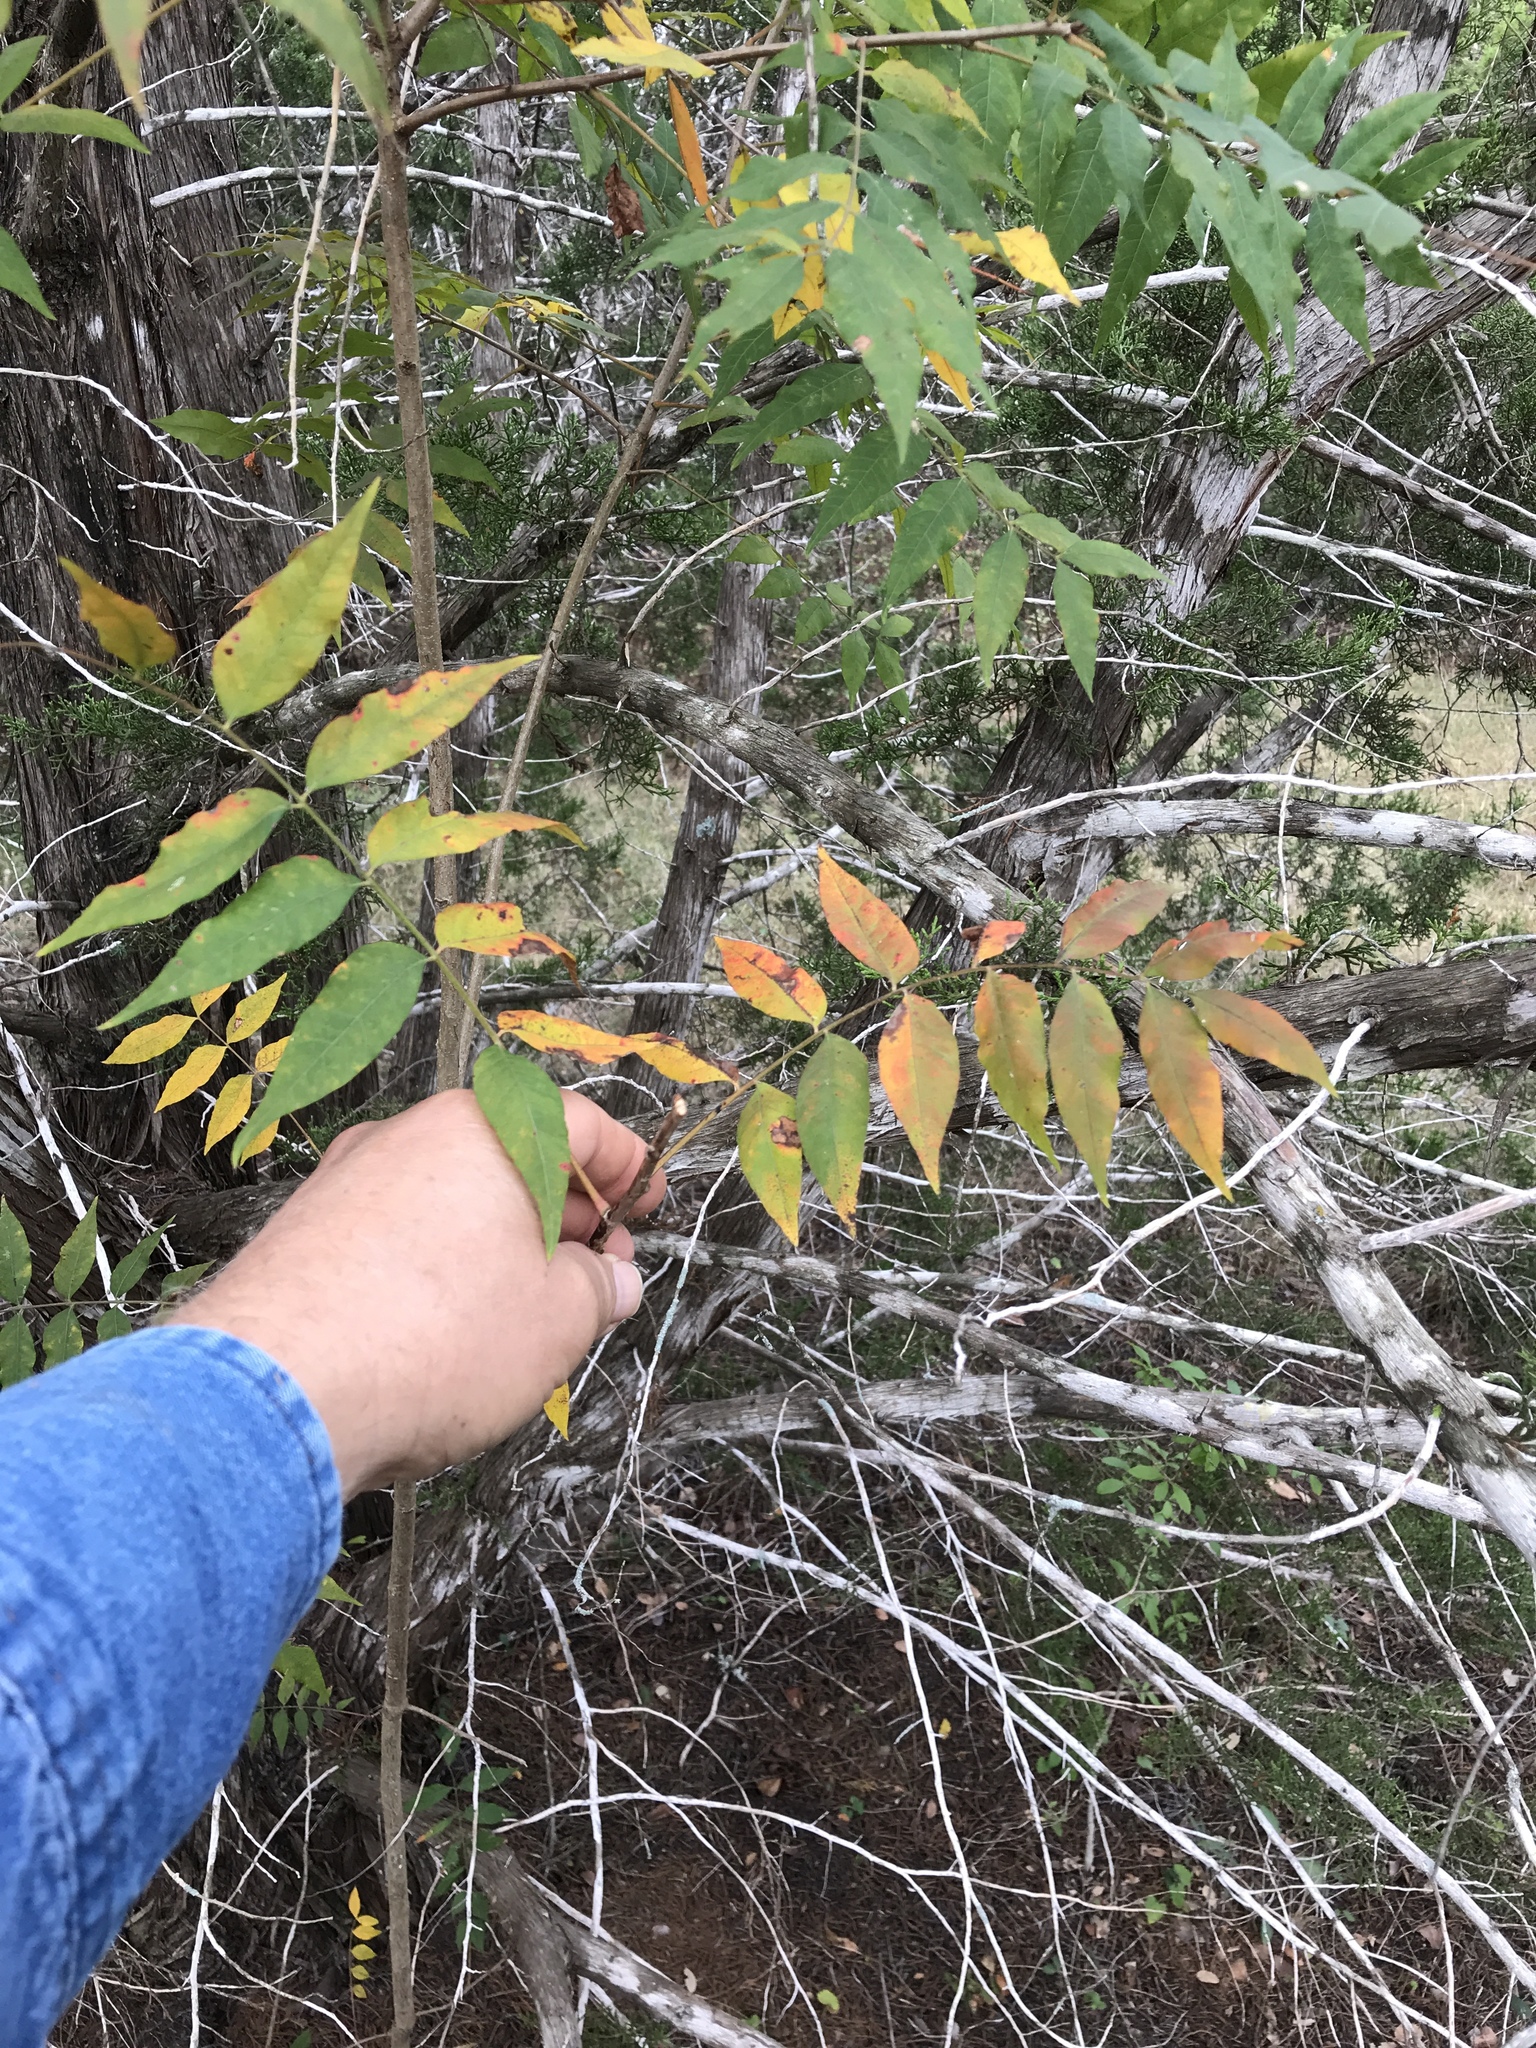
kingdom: Plantae
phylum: Tracheophyta
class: Magnoliopsida
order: Sapindales
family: Anacardiaceae
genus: Pistacia
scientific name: Pistacia chinensis
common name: Chinese pistache
